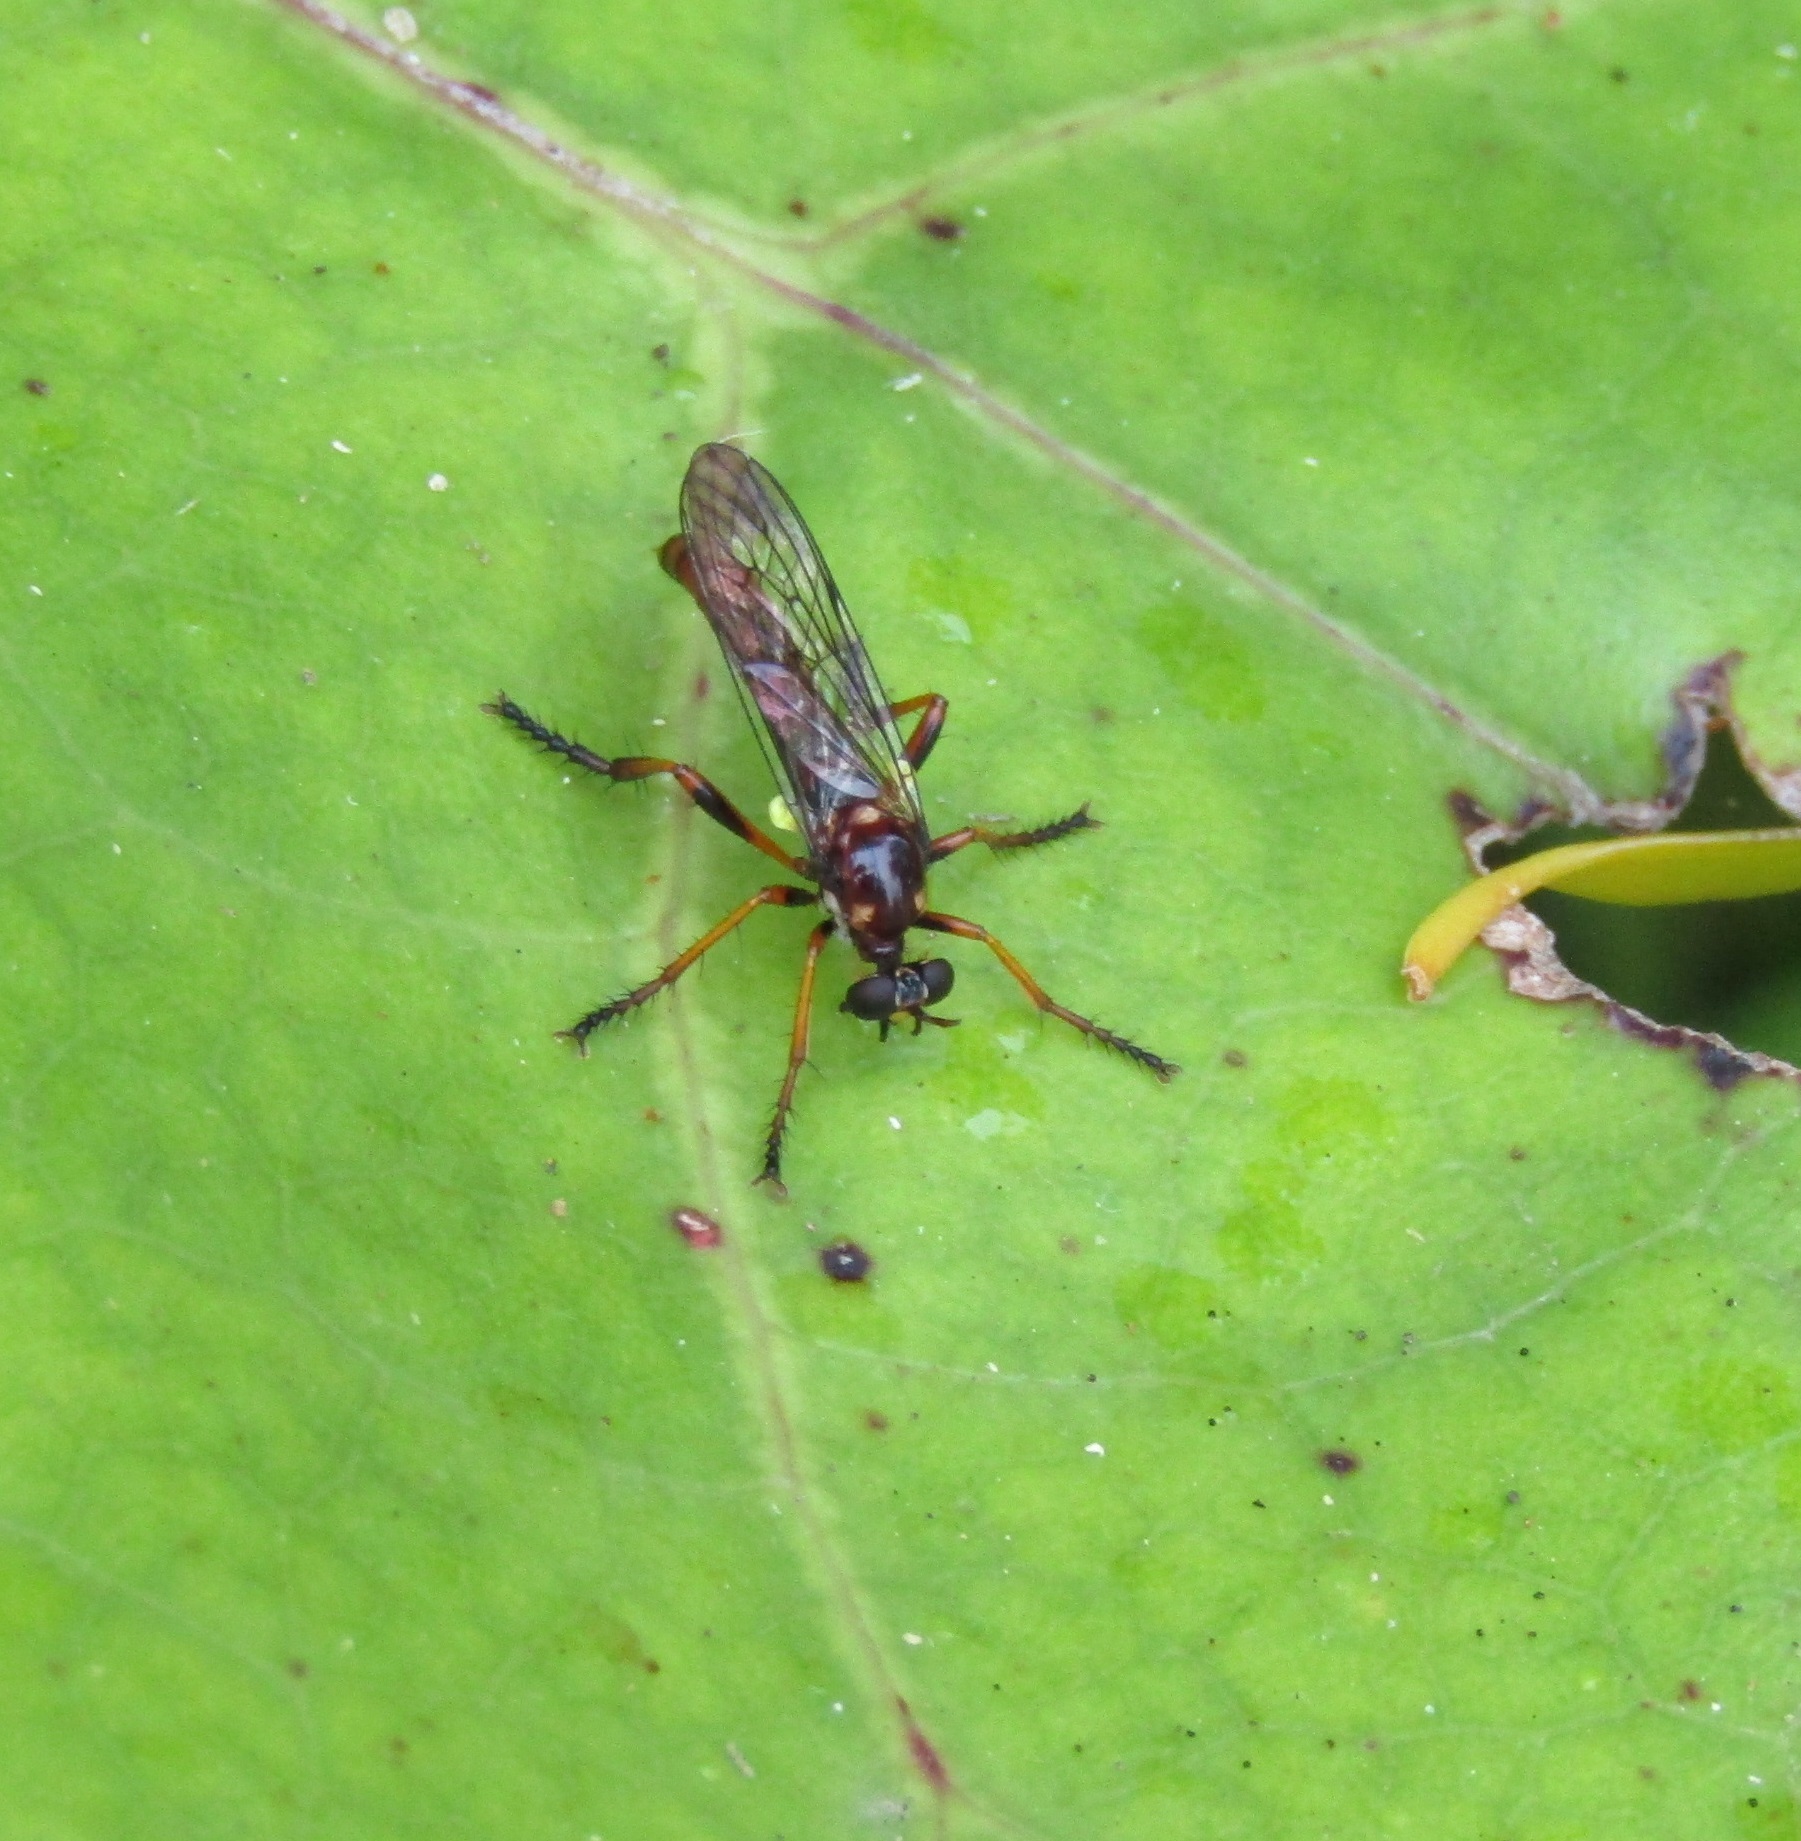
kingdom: Animalia
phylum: Arthropoda
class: Insecta
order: Diptera
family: Asilidae
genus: Saropogon
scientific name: Saropogon fascipes
